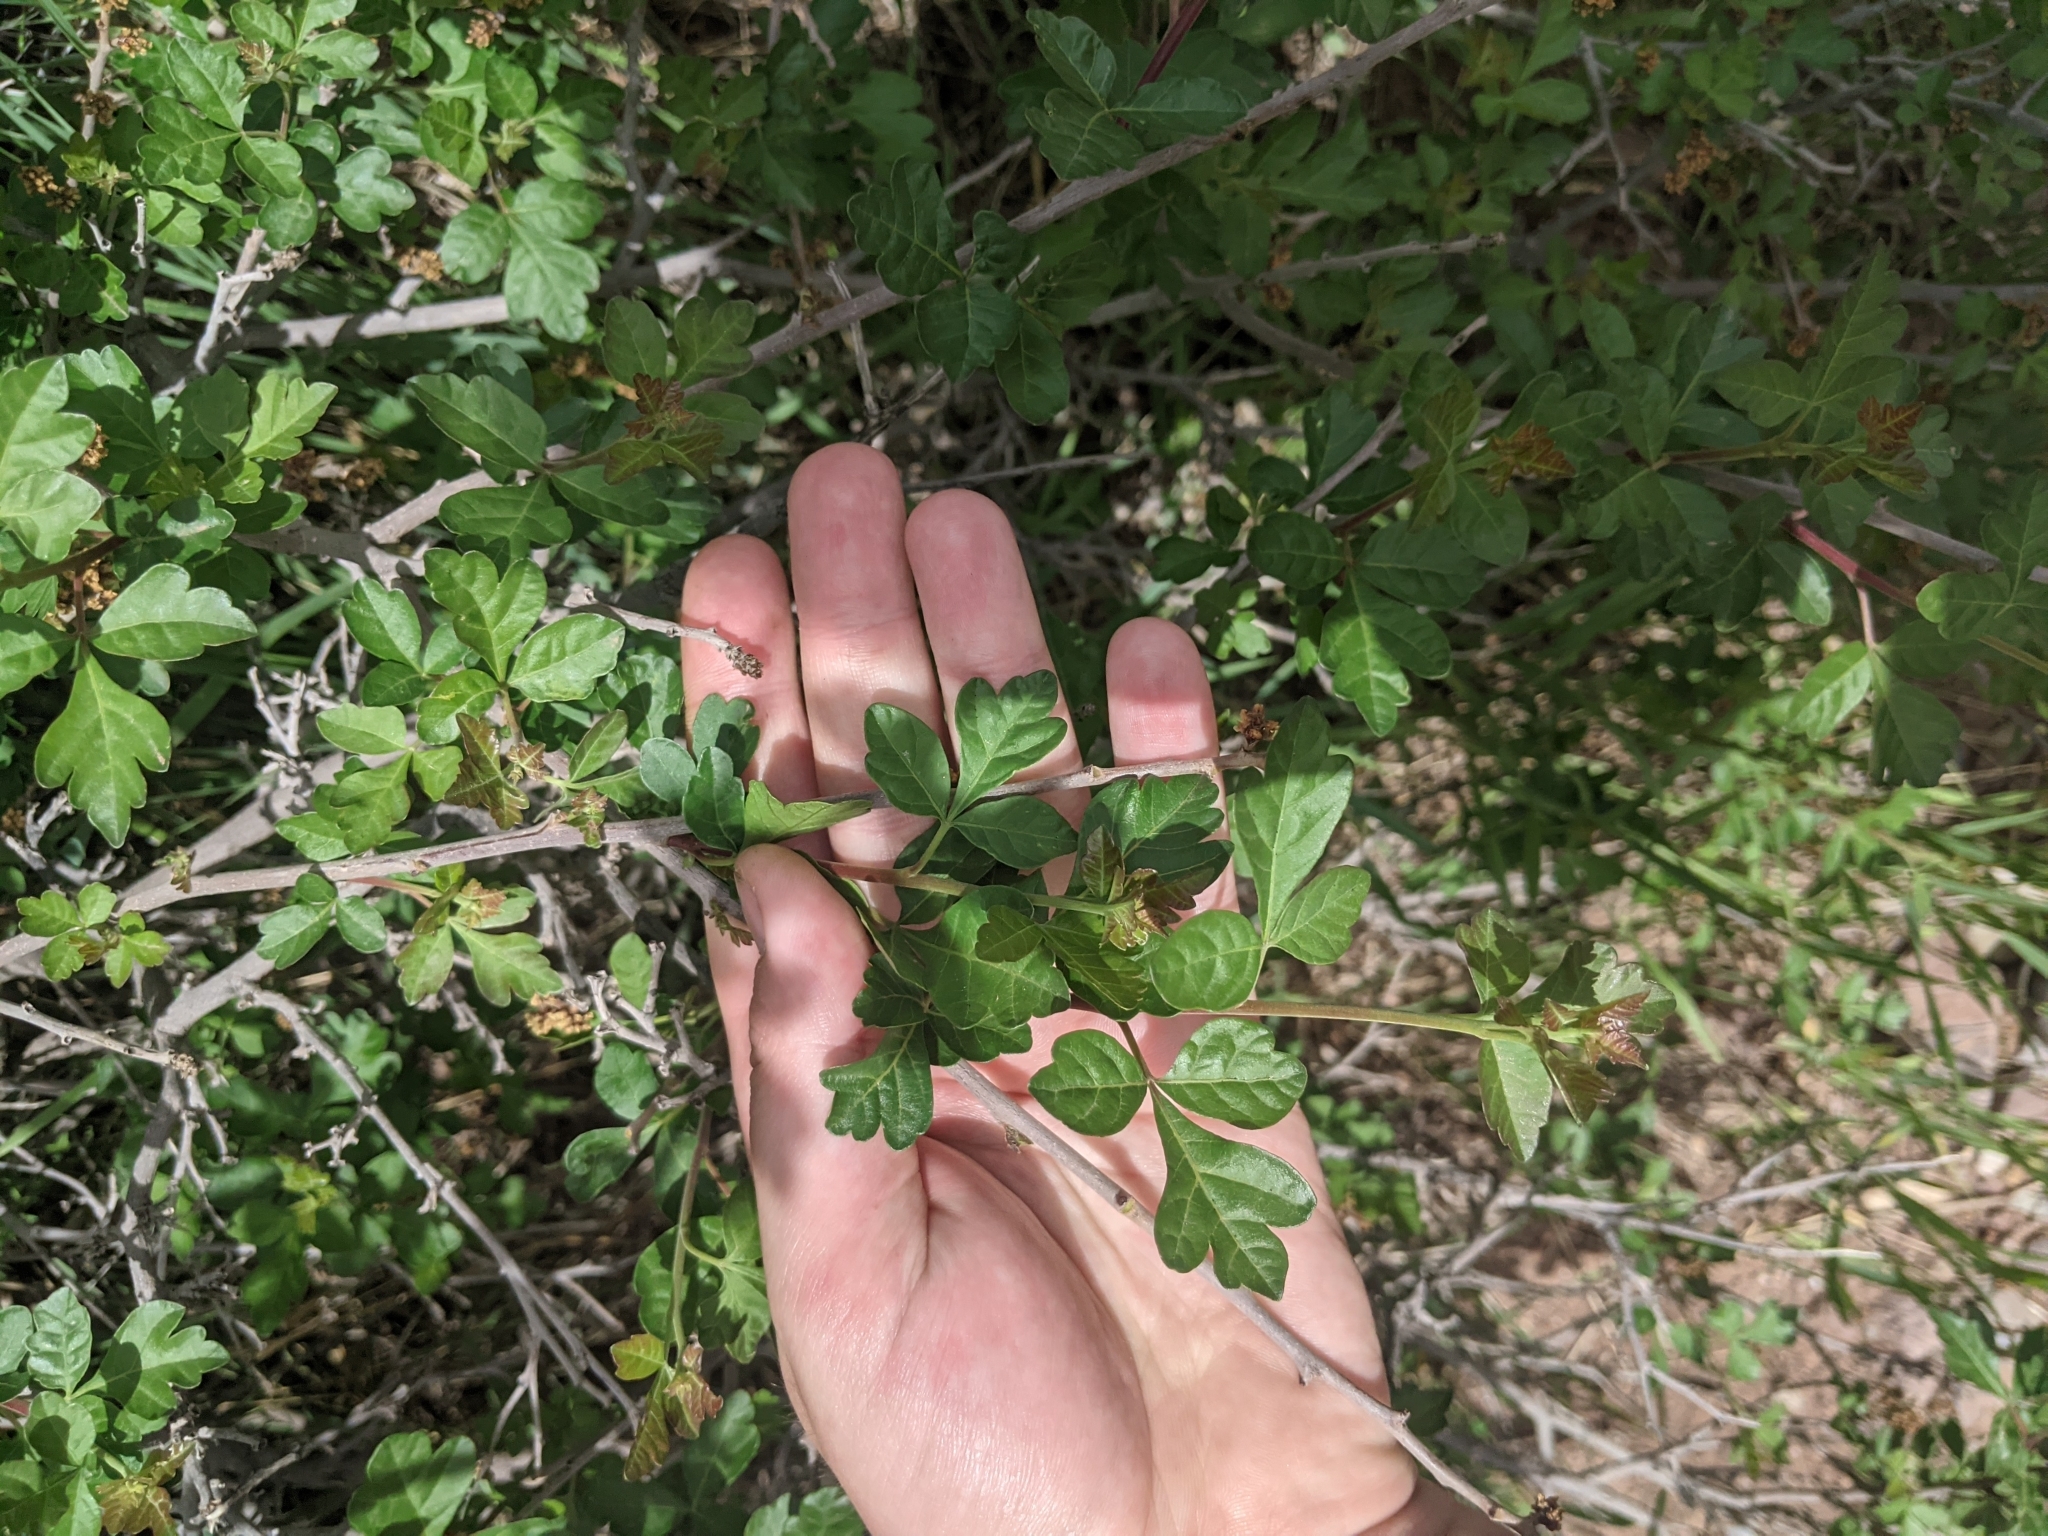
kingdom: Plantae
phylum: Tracheophyta
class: Magnoliopsida
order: Sapindales
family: Anacardiaceae
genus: Rhus
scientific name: Rhus trilobata
